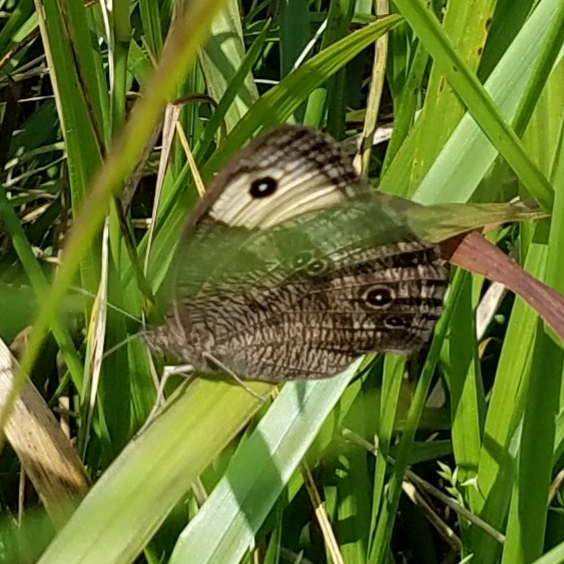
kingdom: Animalia
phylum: Arthropoda
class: Insecta
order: Lepidoptera
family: Nymphalidae
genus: Cercyonis
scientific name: Cercyonis pegala
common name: Common wood-nymph
